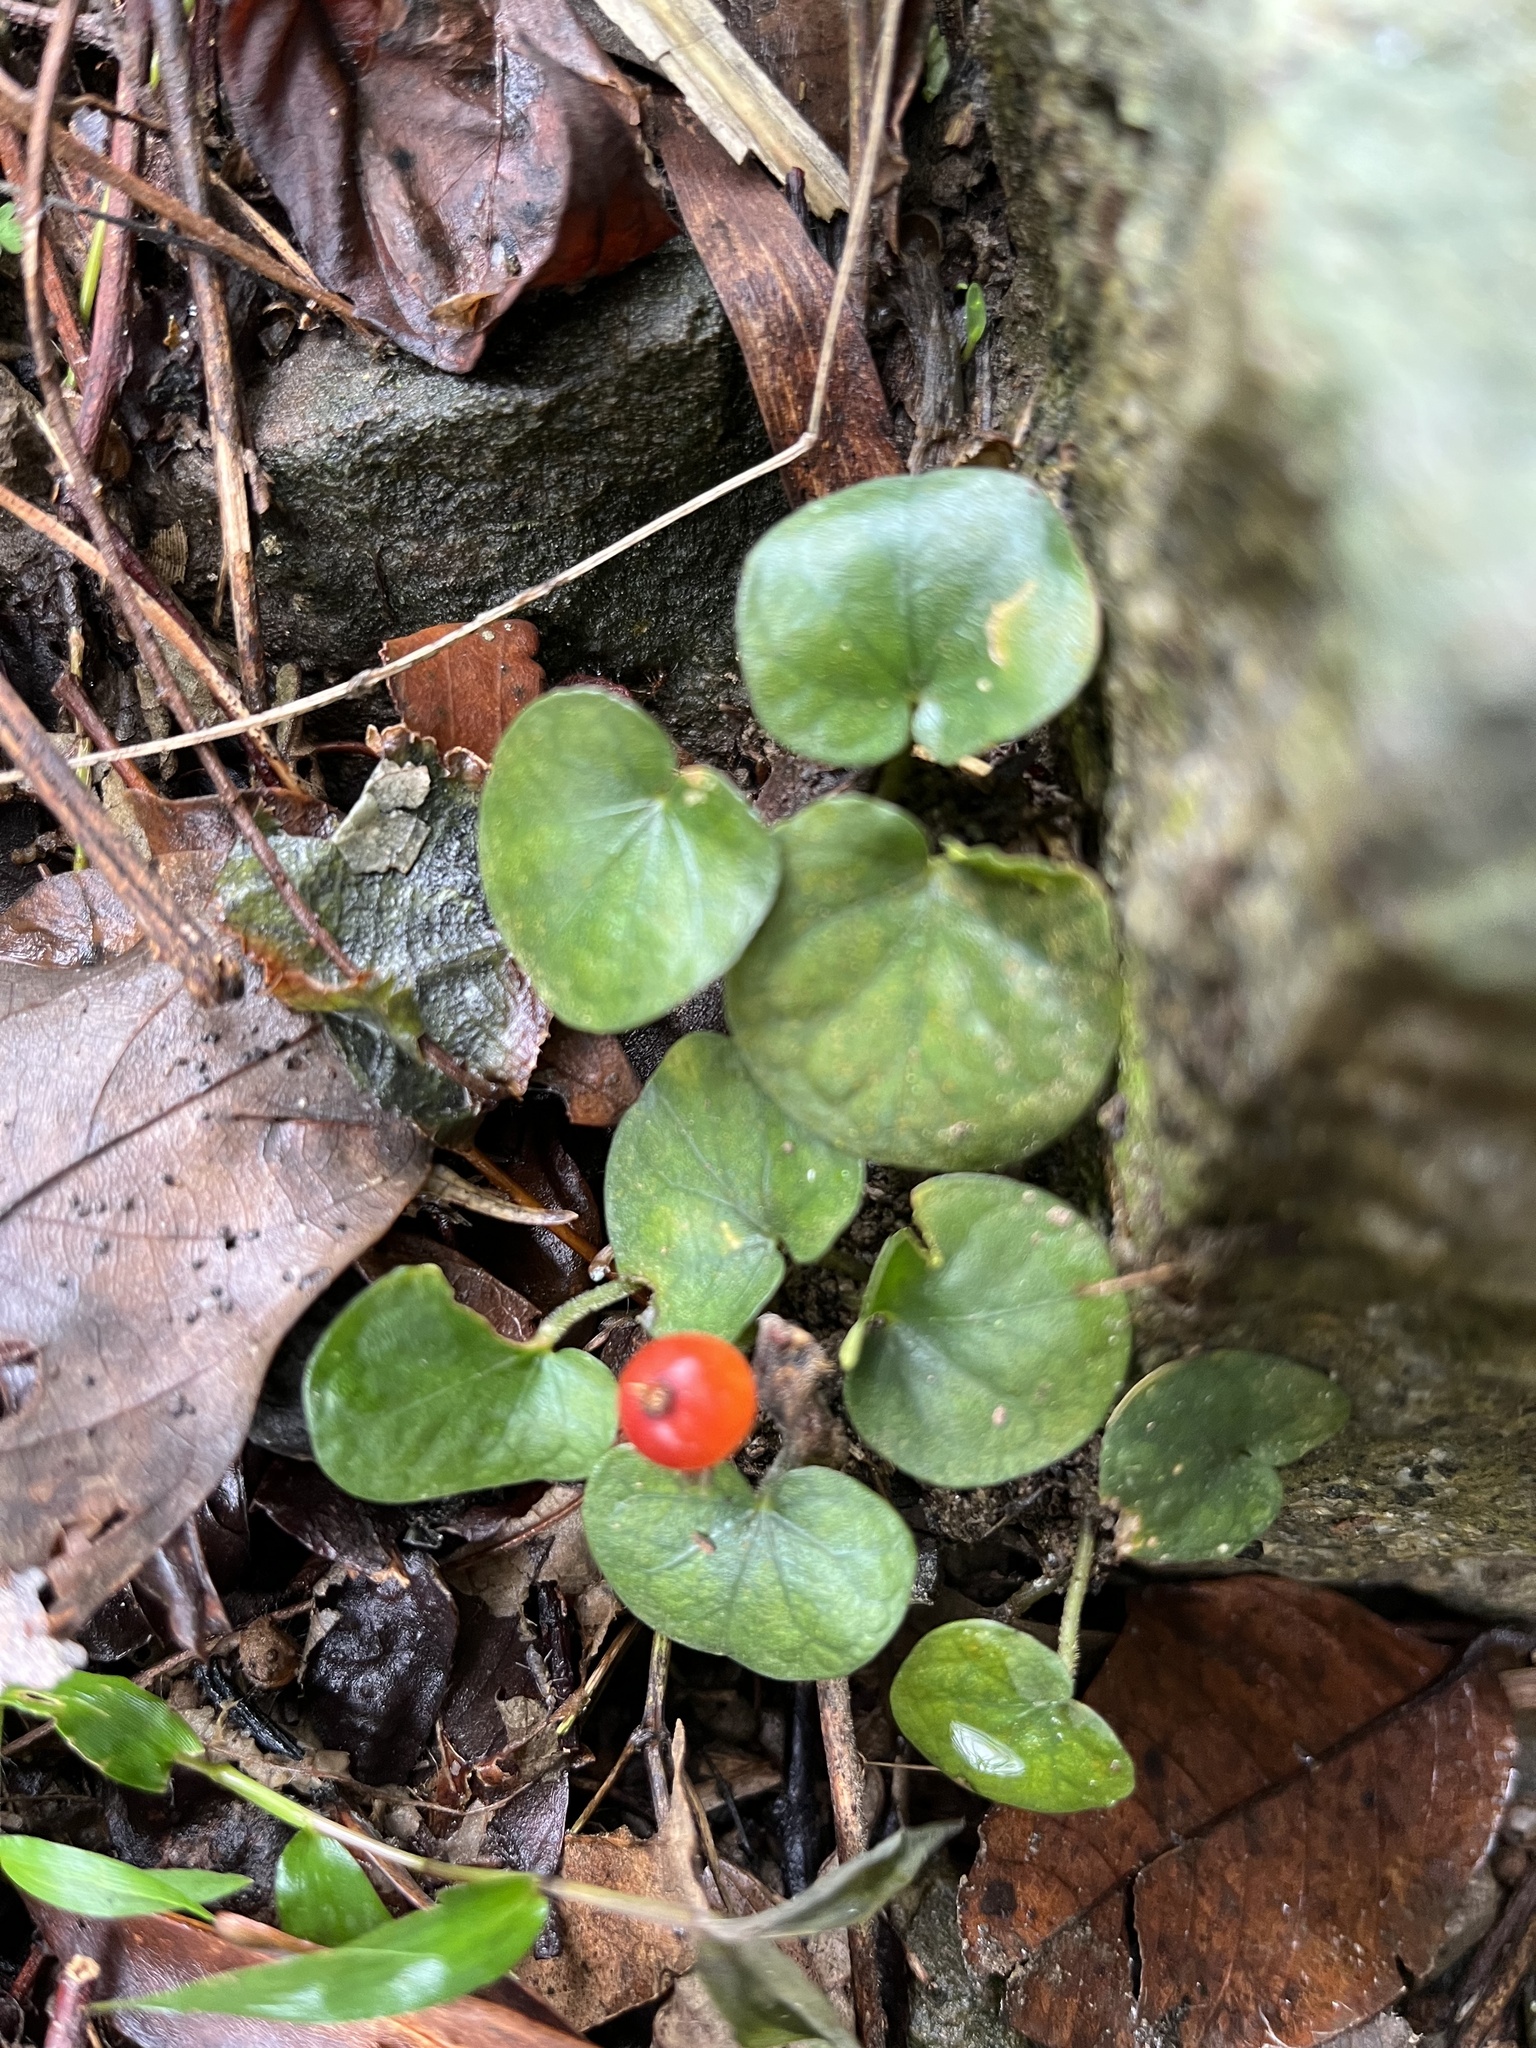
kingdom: Plantae
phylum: Tracheophyta
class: Magnoliopsida
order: Gentianales
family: Rubiaceae
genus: Geophila
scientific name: Geophila herbacea
